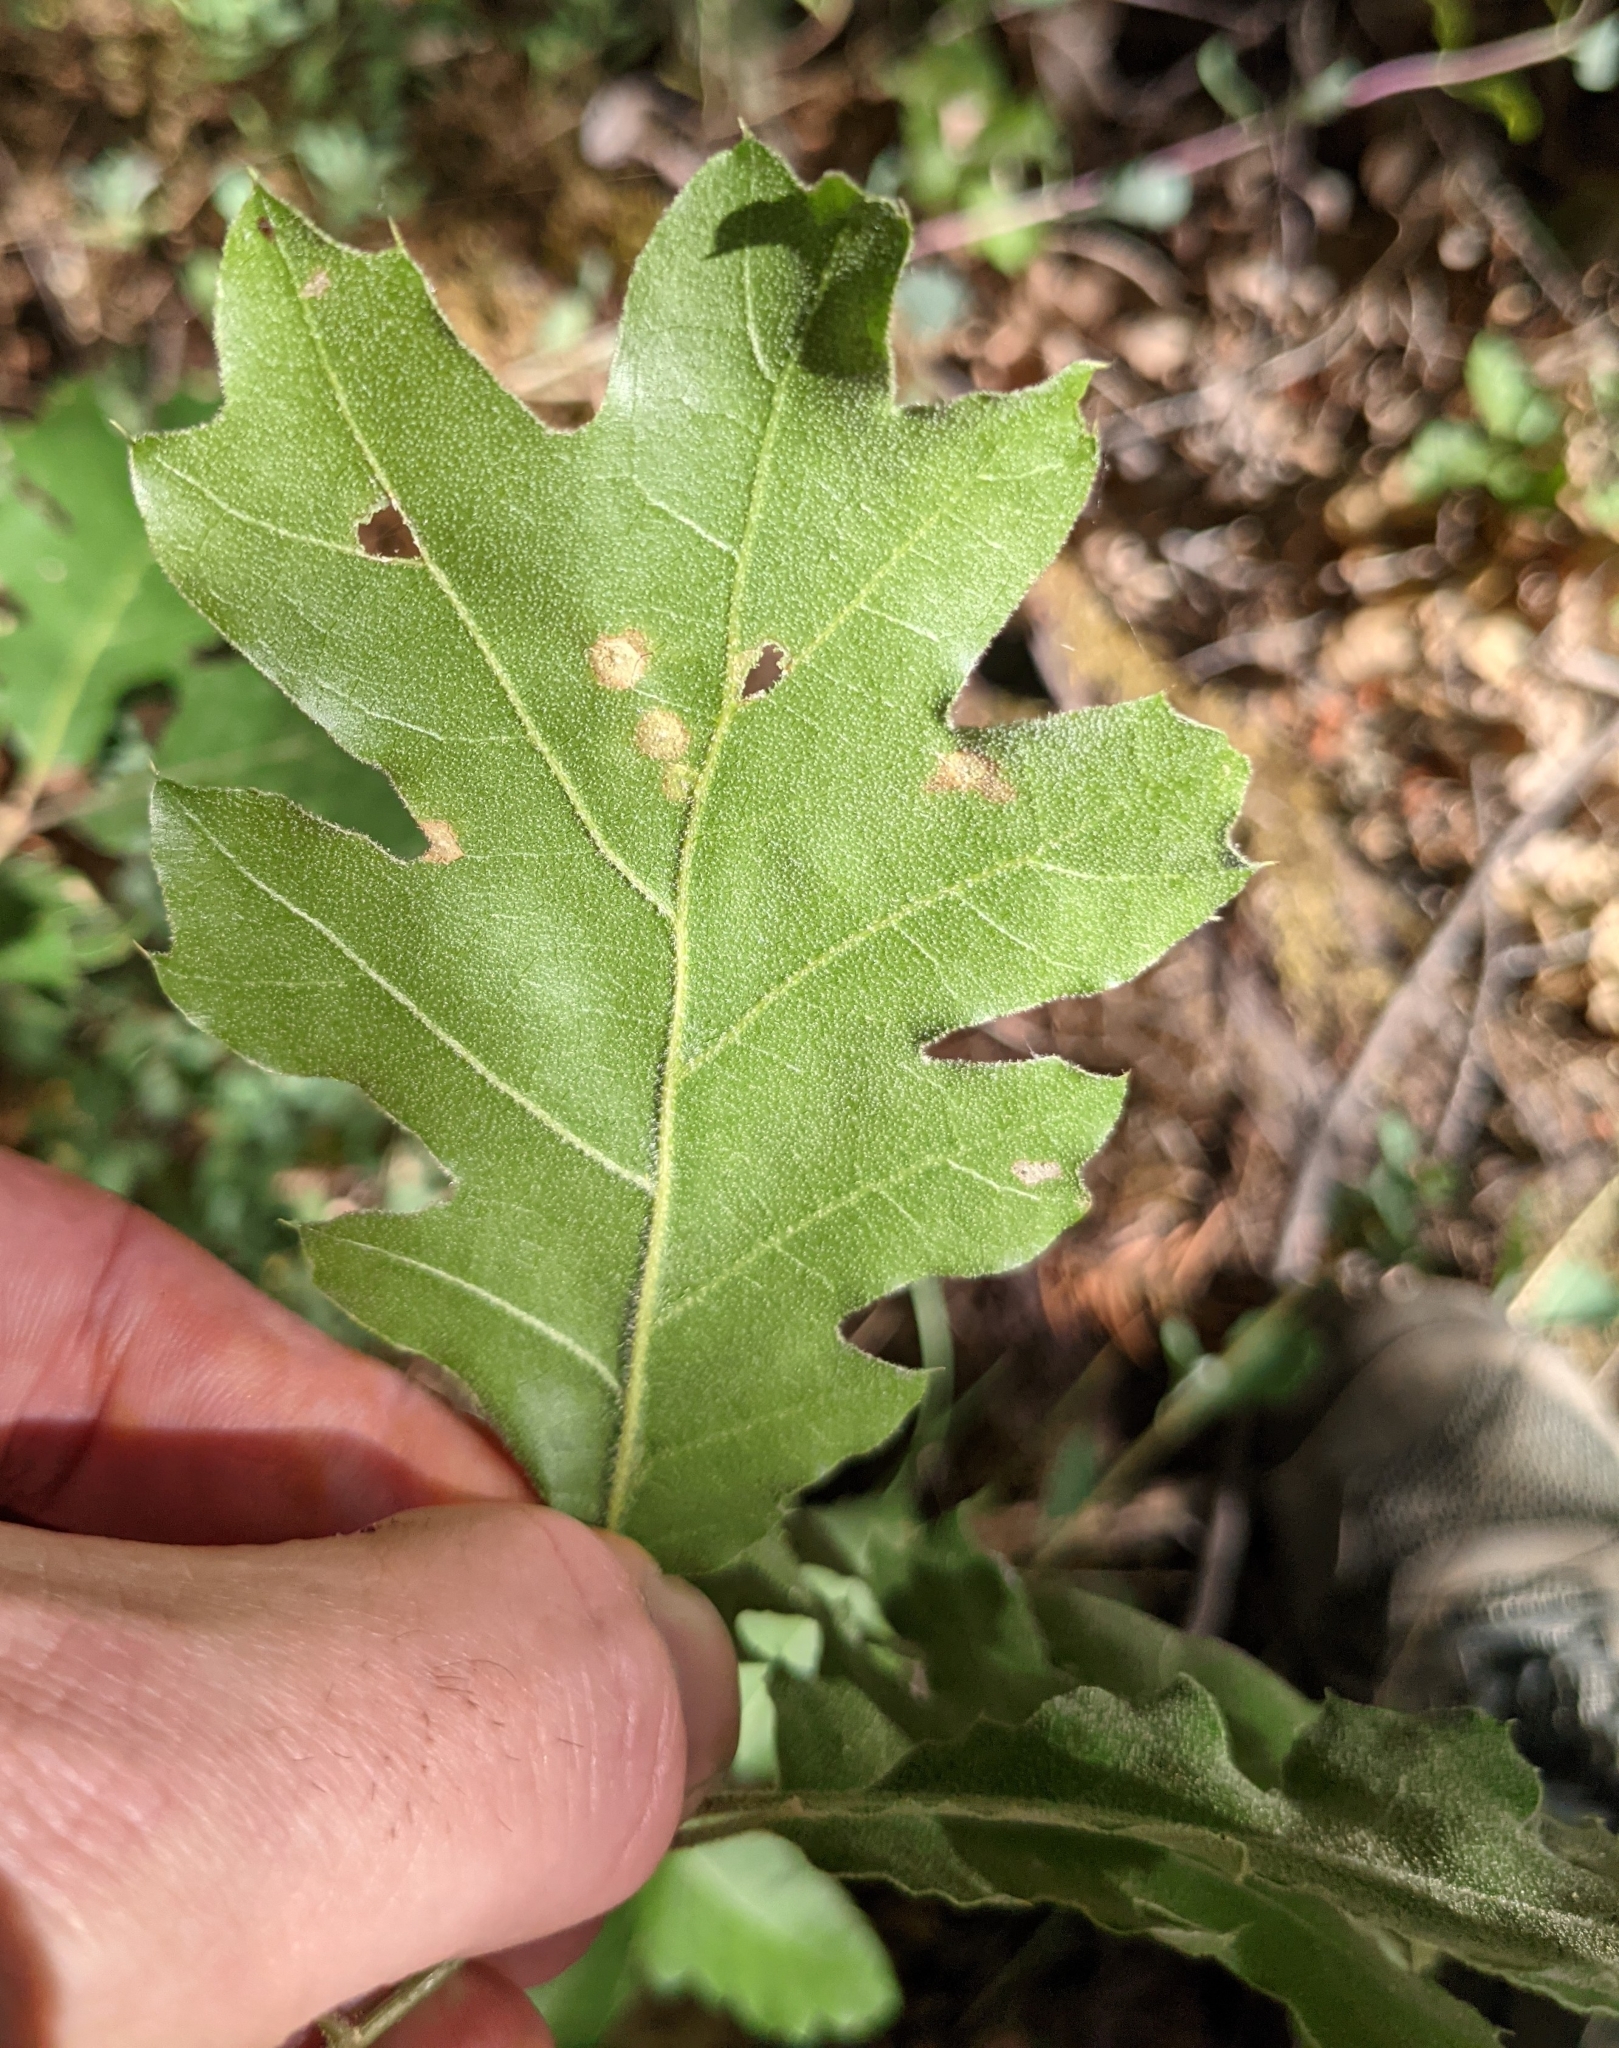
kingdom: Plantae
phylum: Tracheophyta
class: Magnoliopsida
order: Fagales
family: Fagaceae
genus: Quercus
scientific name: Quercus kelloggii
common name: California black oak
